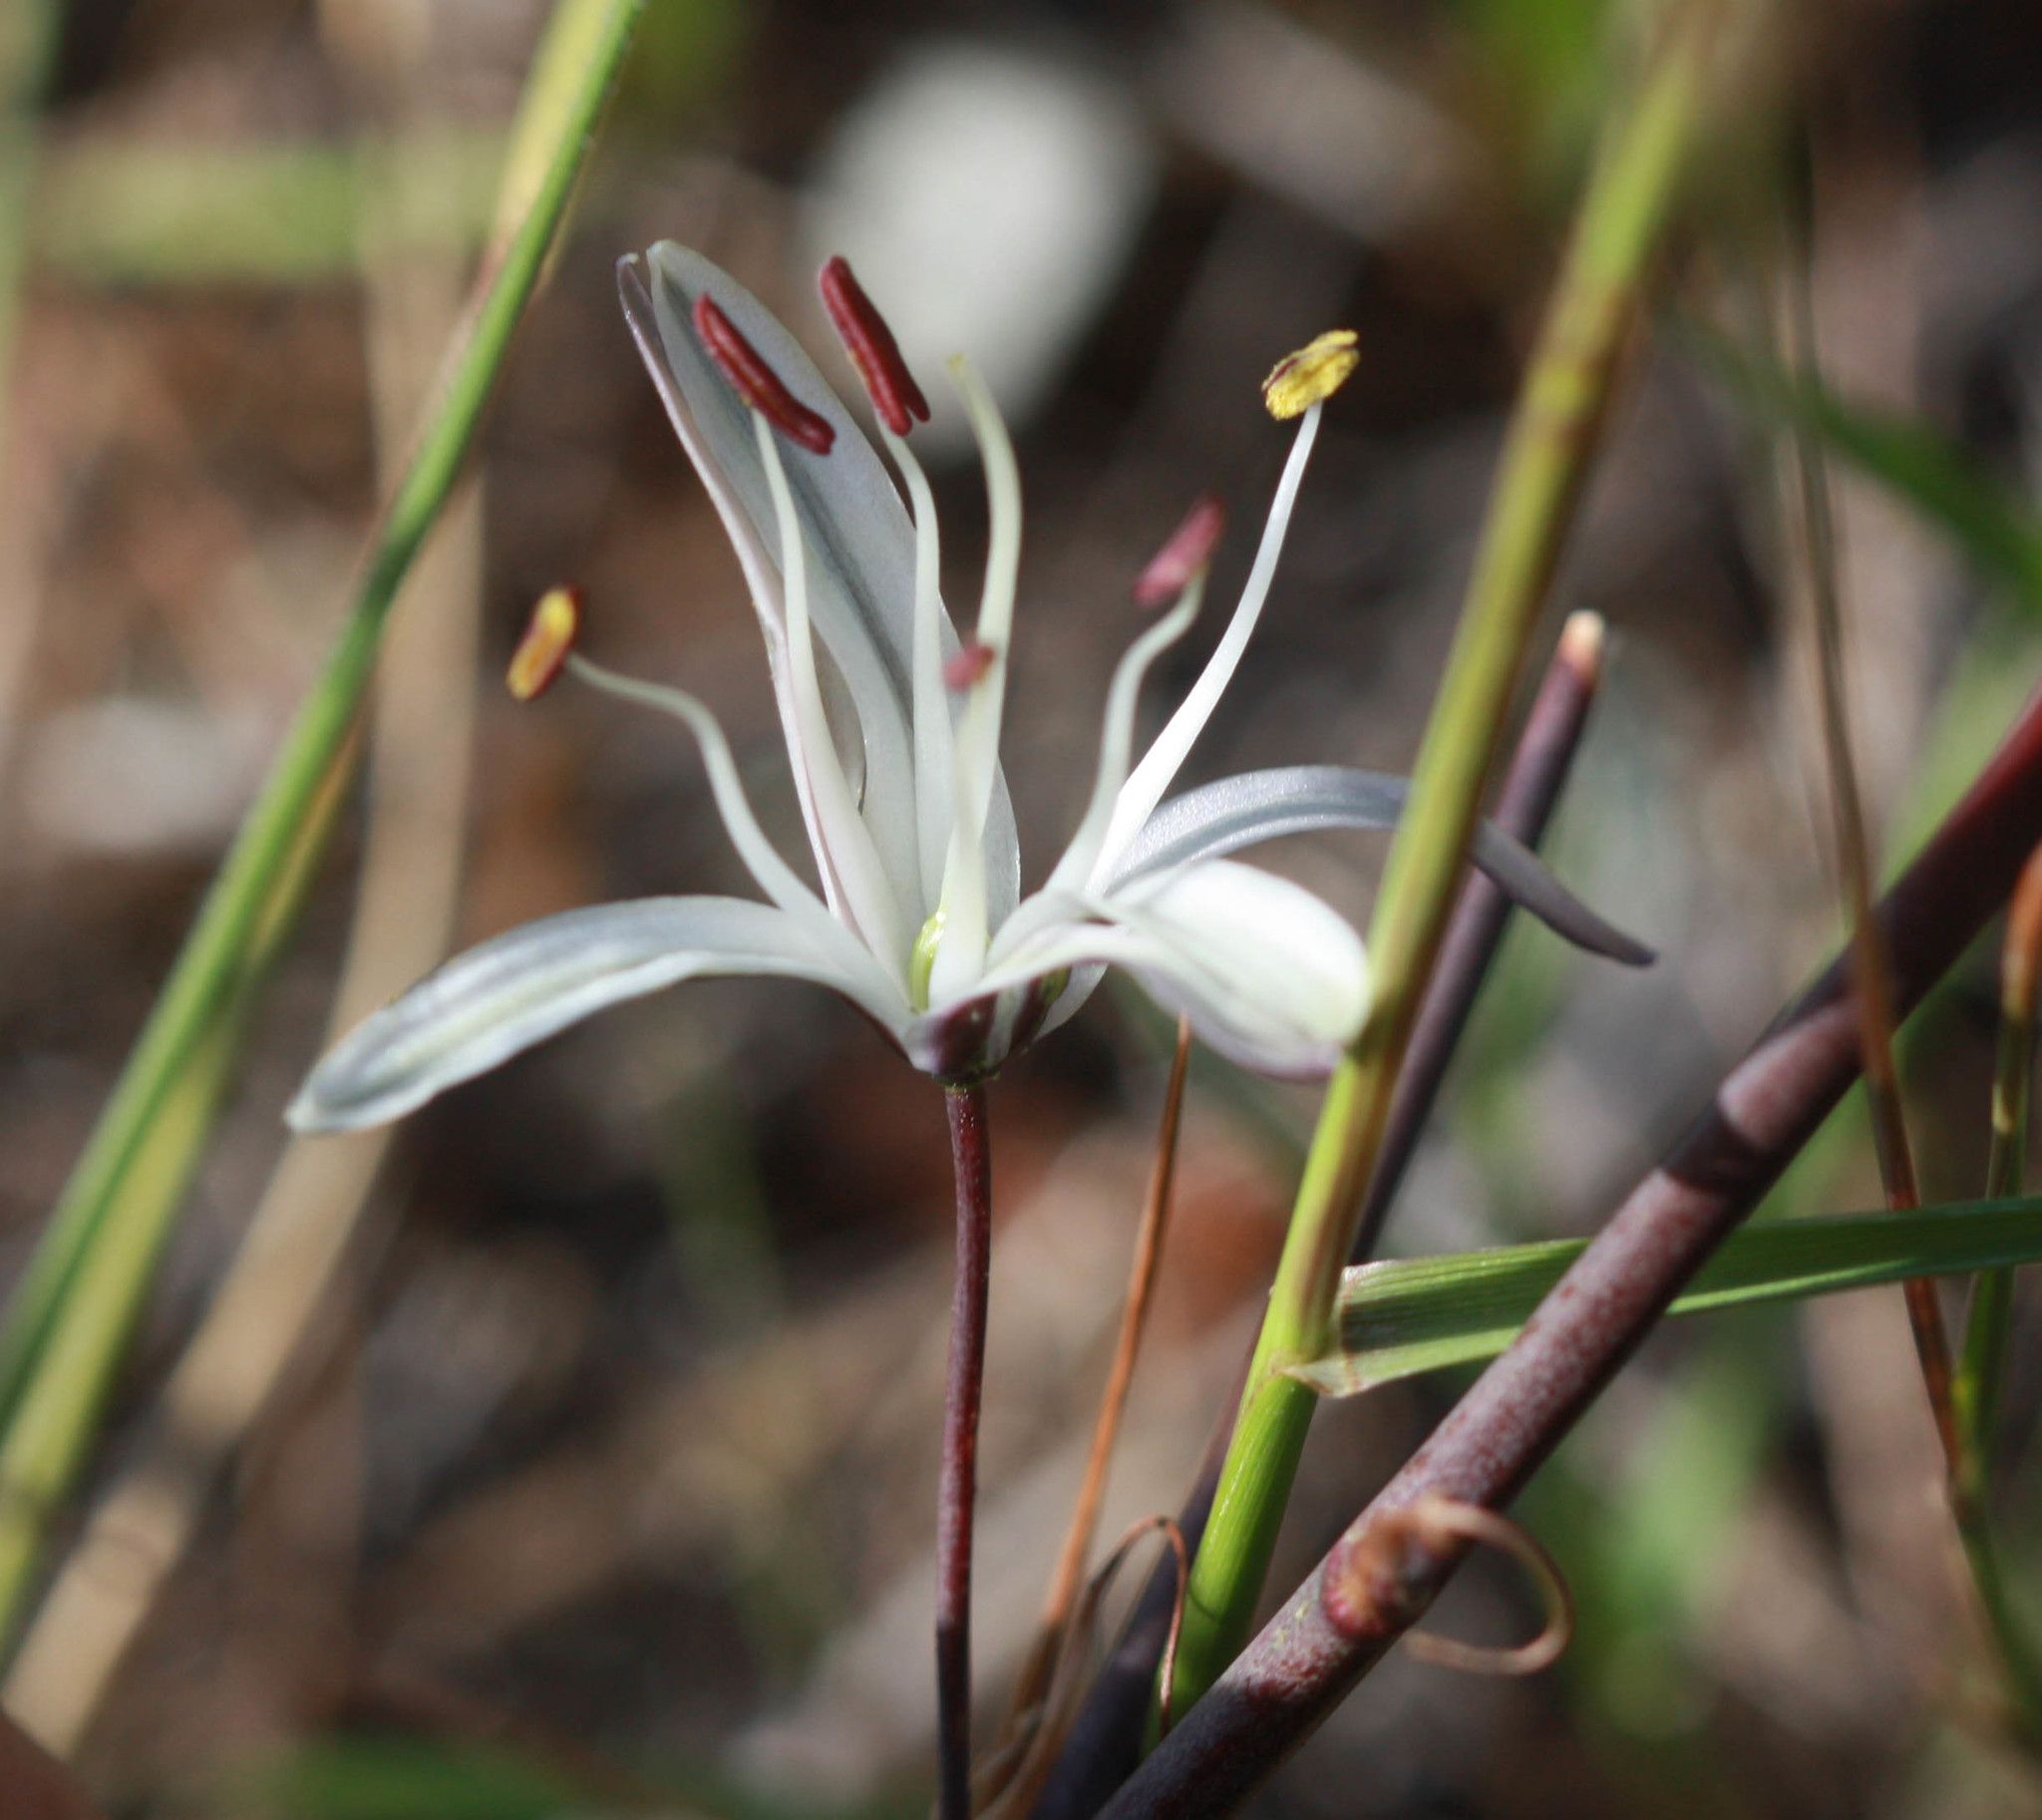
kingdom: Plantae
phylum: Tracheophyta
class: Liliopsida
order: Asparagales
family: Asparagaceae
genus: Chlorogalum
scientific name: Chlorogalum pomeridianum
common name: Amole
